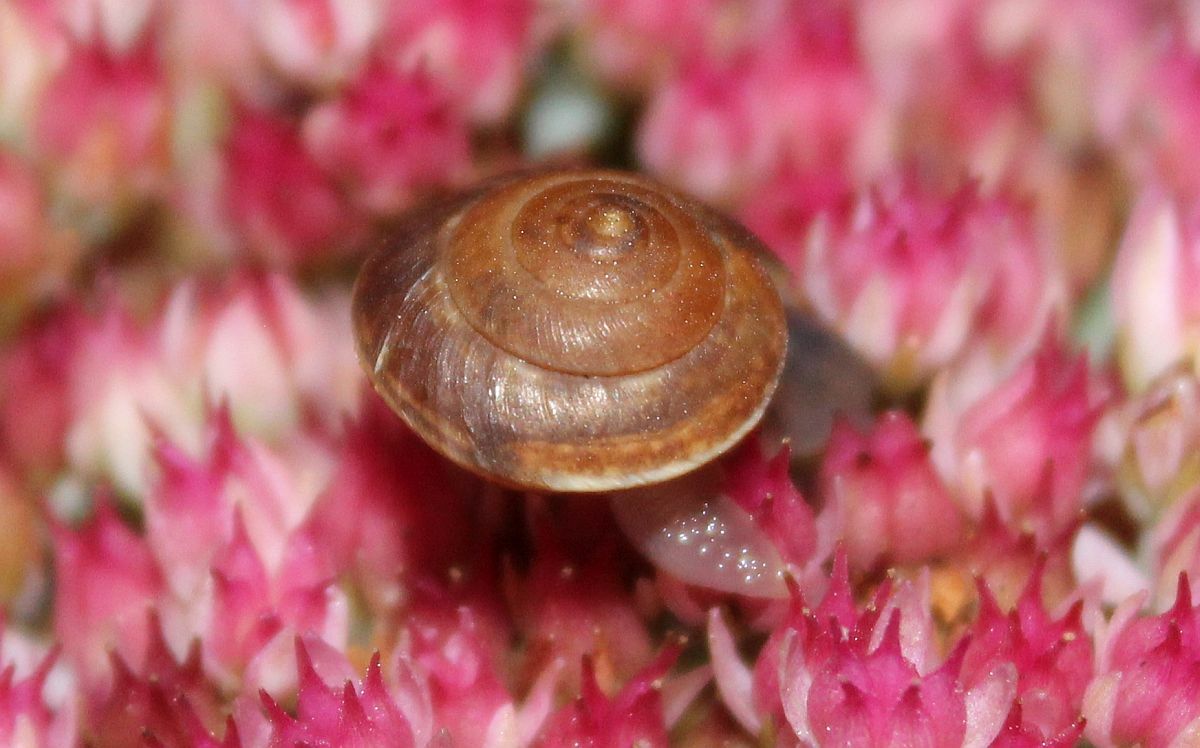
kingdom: Animalia
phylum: Mollusca
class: Gastropoda
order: Stylommatophora
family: Hygromiidae
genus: Hygromia
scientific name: Hygromia cinctella
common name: Girdled snail
